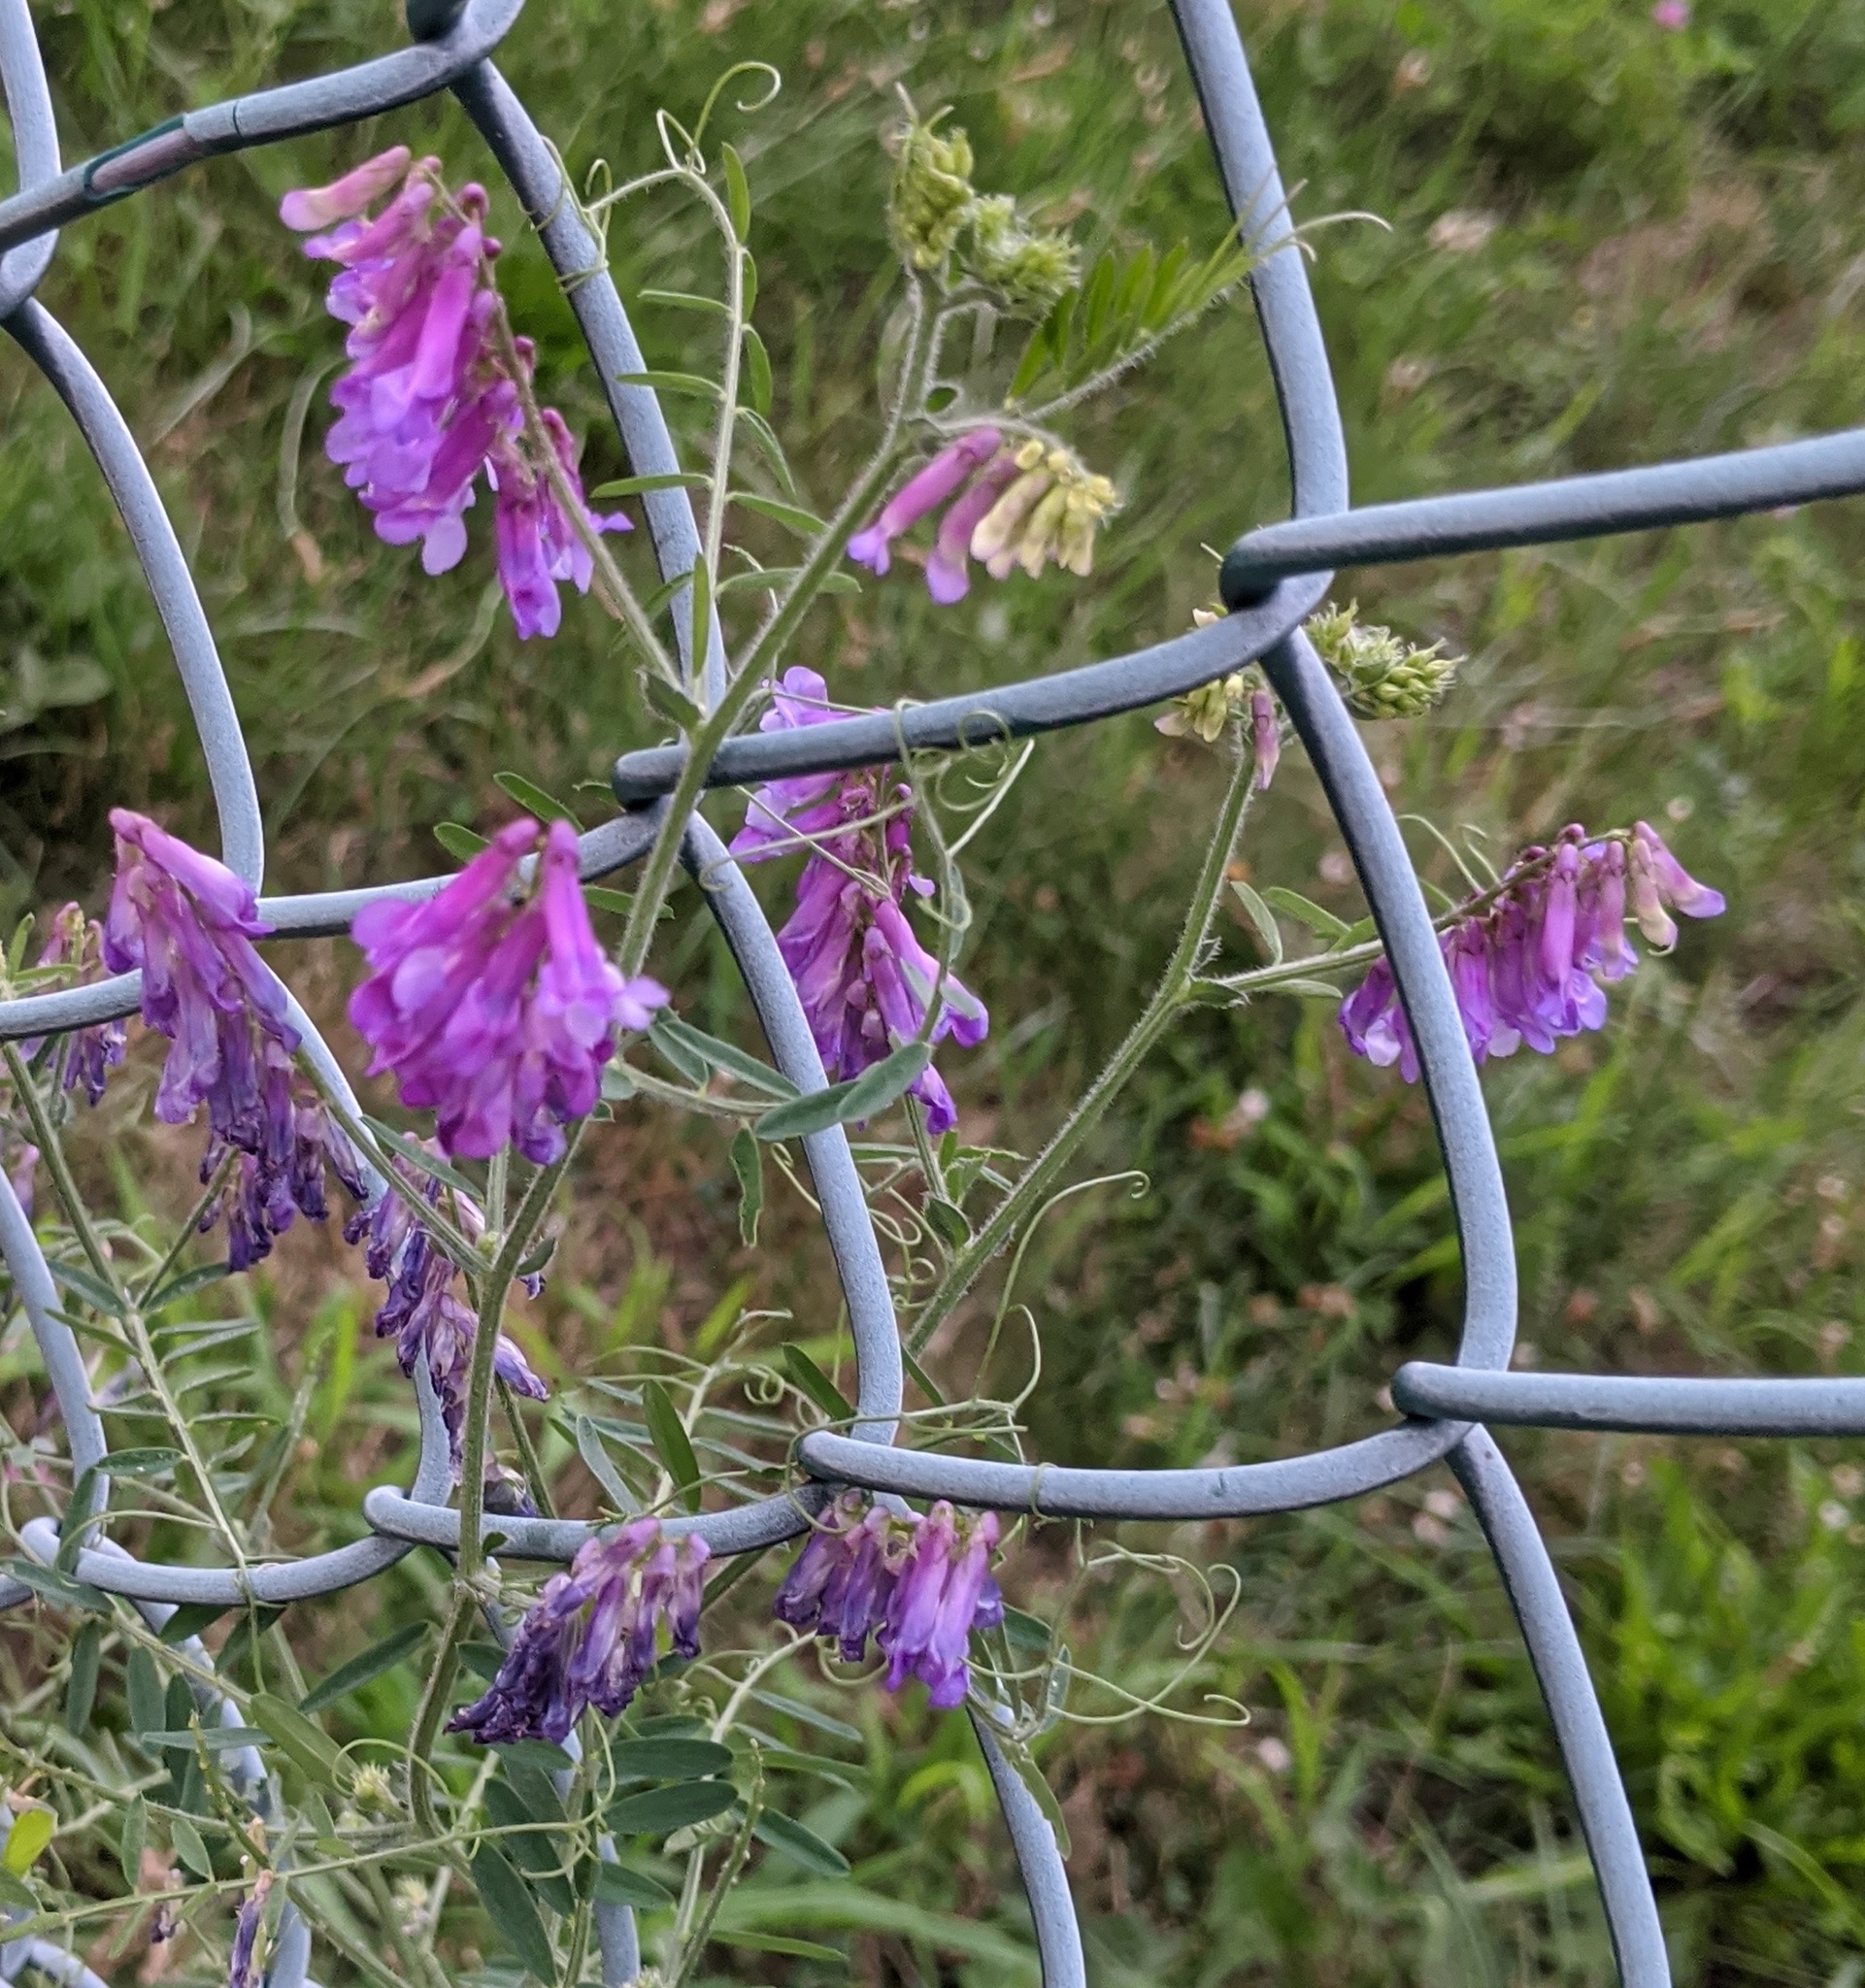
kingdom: Plantae
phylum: Tracheophyta
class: Magnoliopsida
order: Fabales
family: Fabaceae
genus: Vicia
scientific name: Vicia villosa
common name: Fodder vetch
